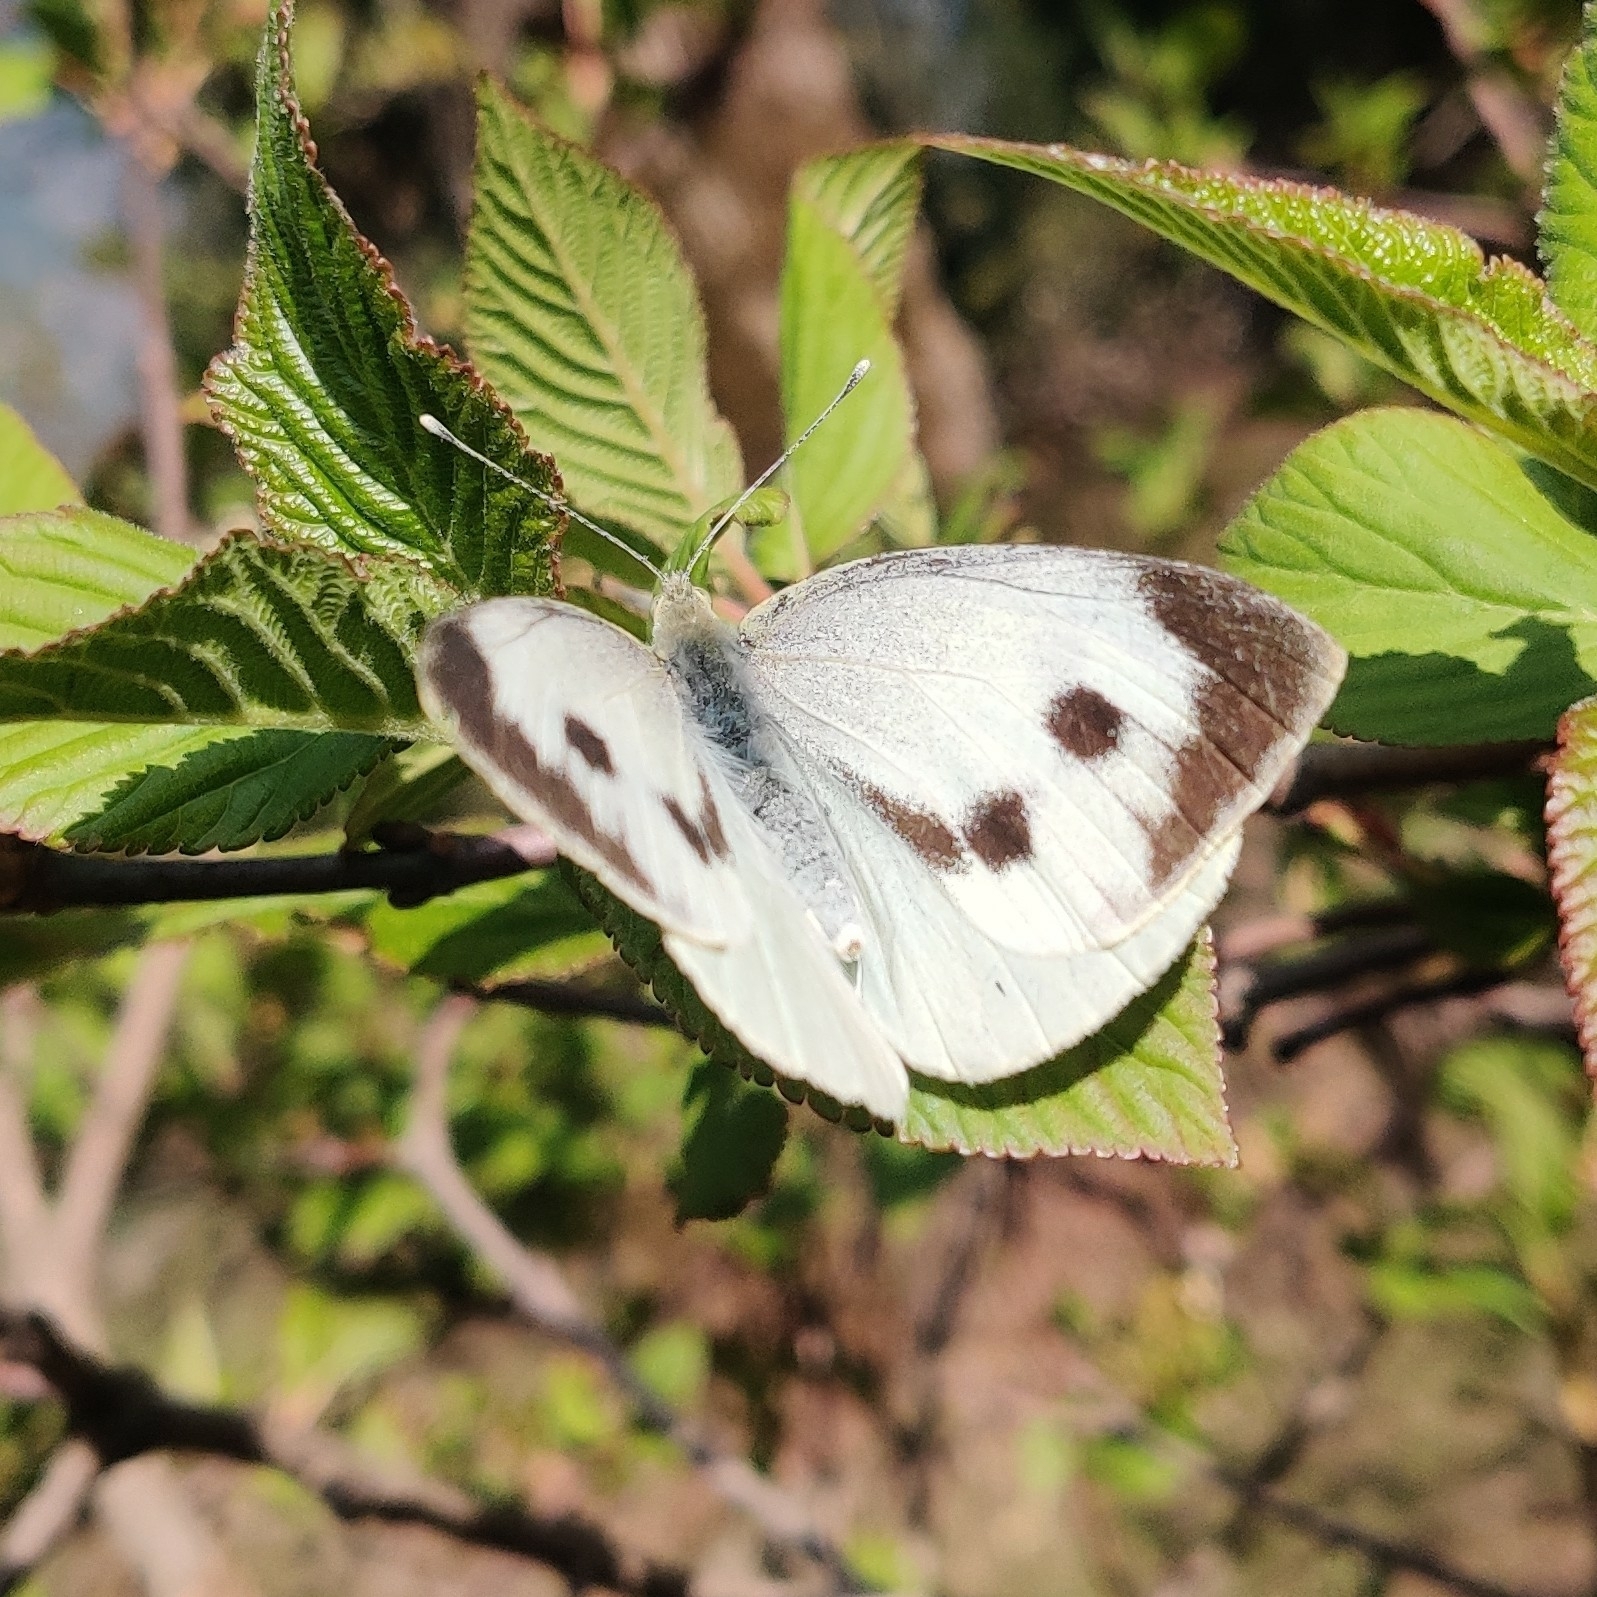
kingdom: Animalia
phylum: Arthropoda
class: Insecta
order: Lepidoptera
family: Pieridae
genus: Pieris
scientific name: Pieris canidia
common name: Indian cabbage white
